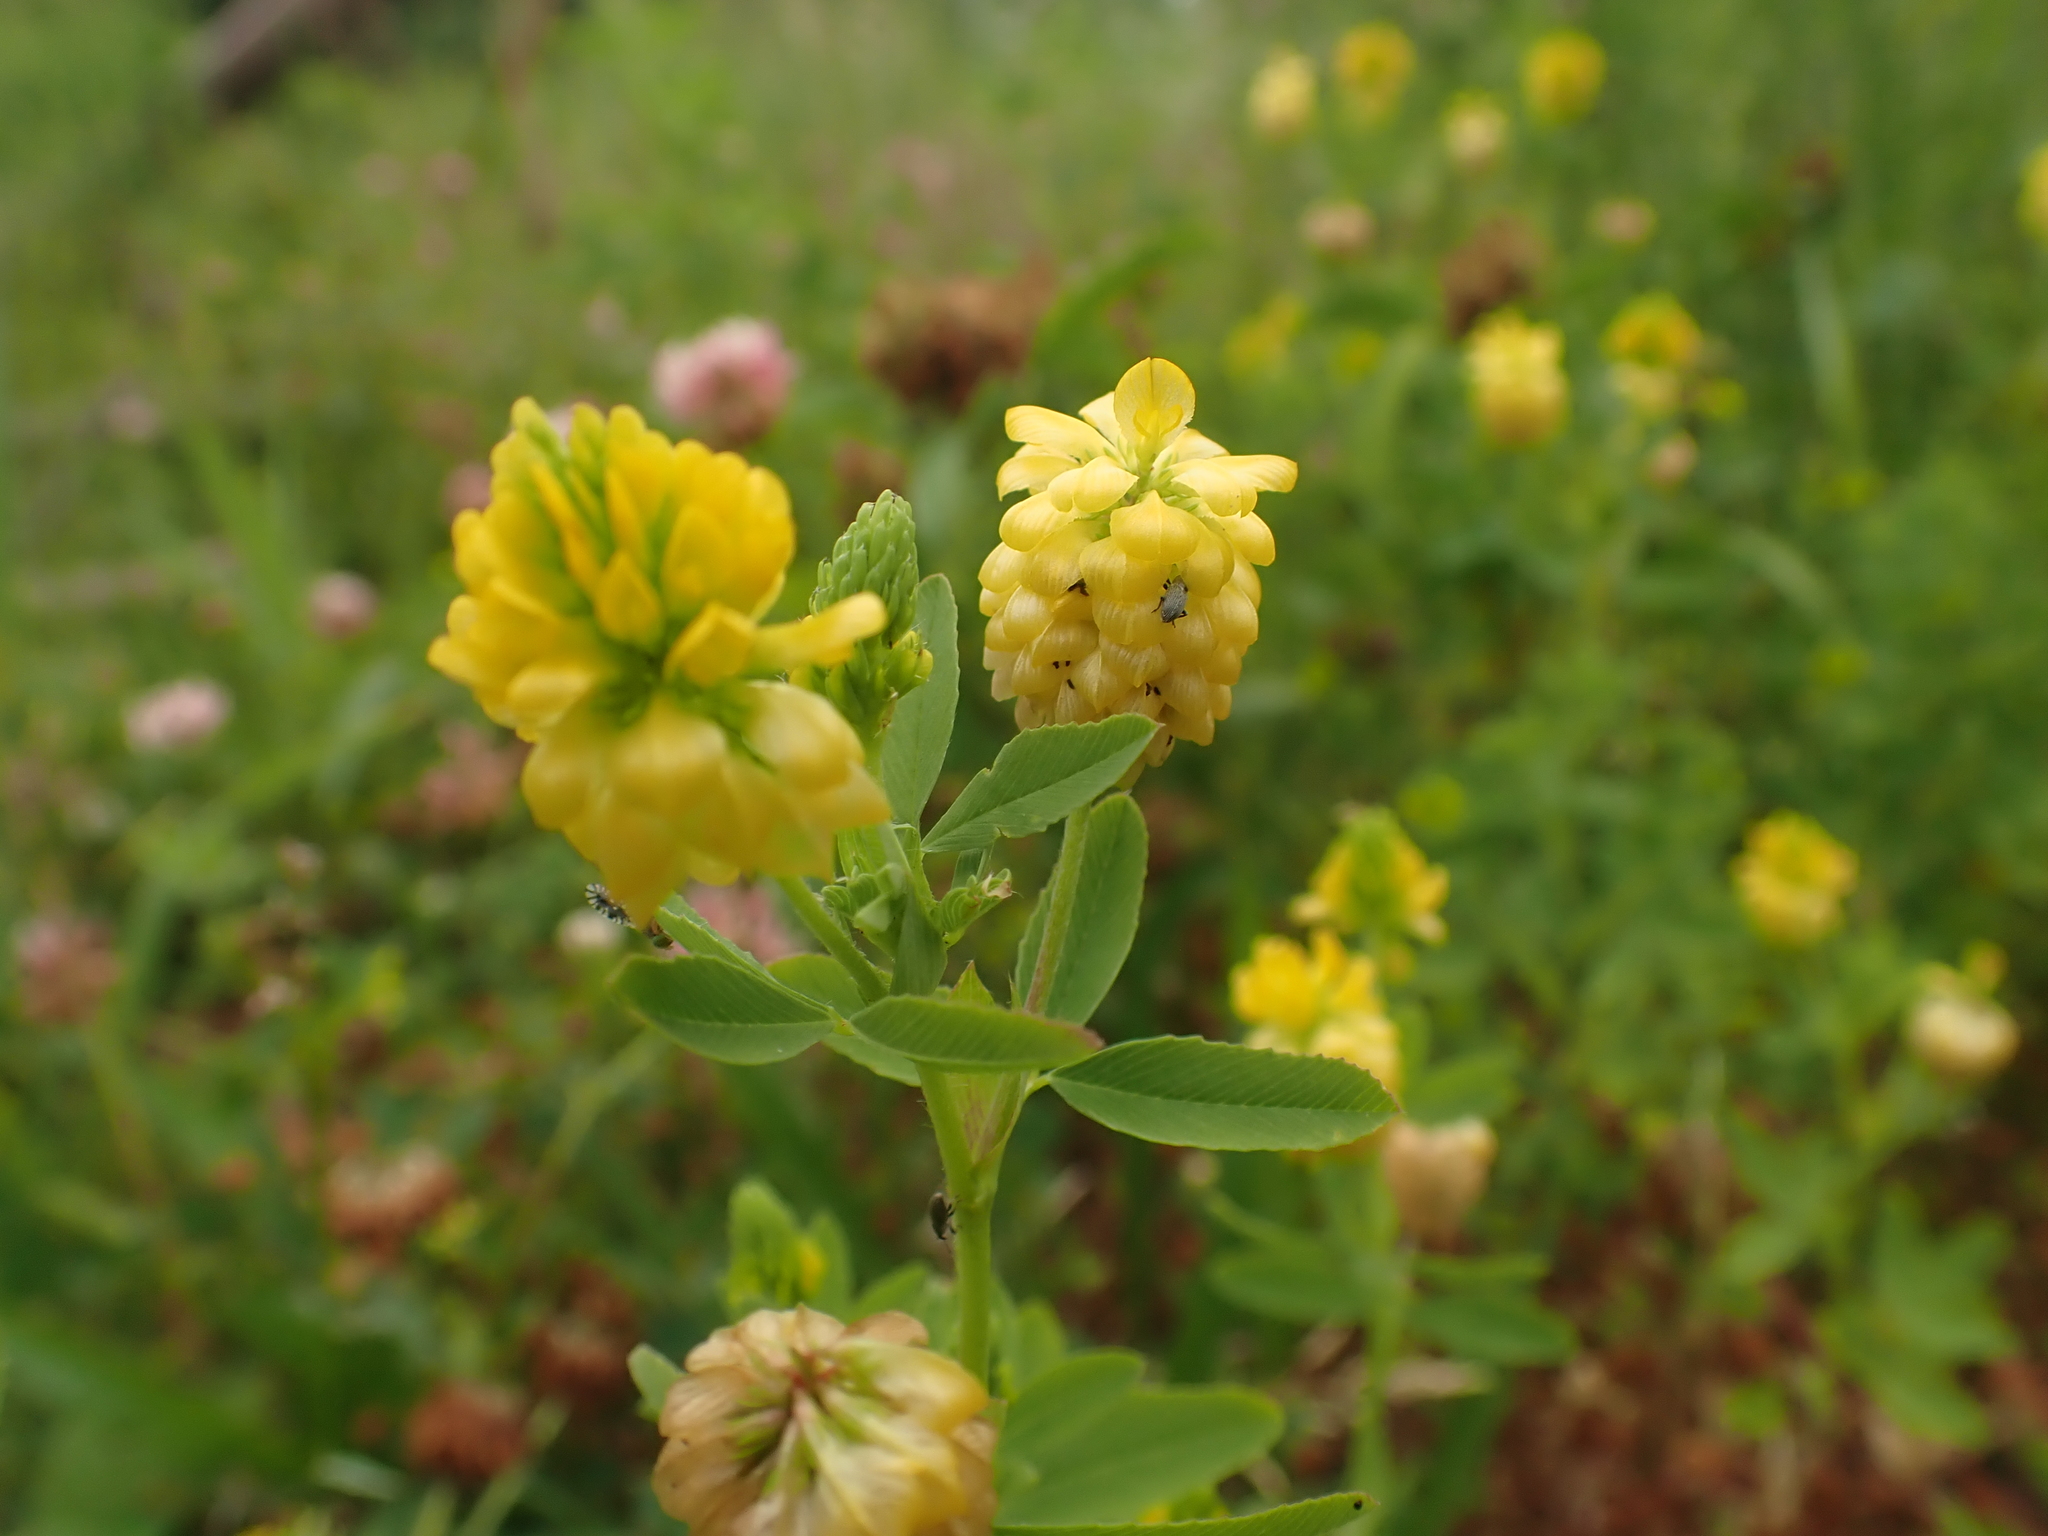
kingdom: Plantae
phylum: Tracheophyta
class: Magnoliopsida
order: Fabales
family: Fabaceae
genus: Trifolium
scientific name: Trifolium aureum
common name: Golden clover
